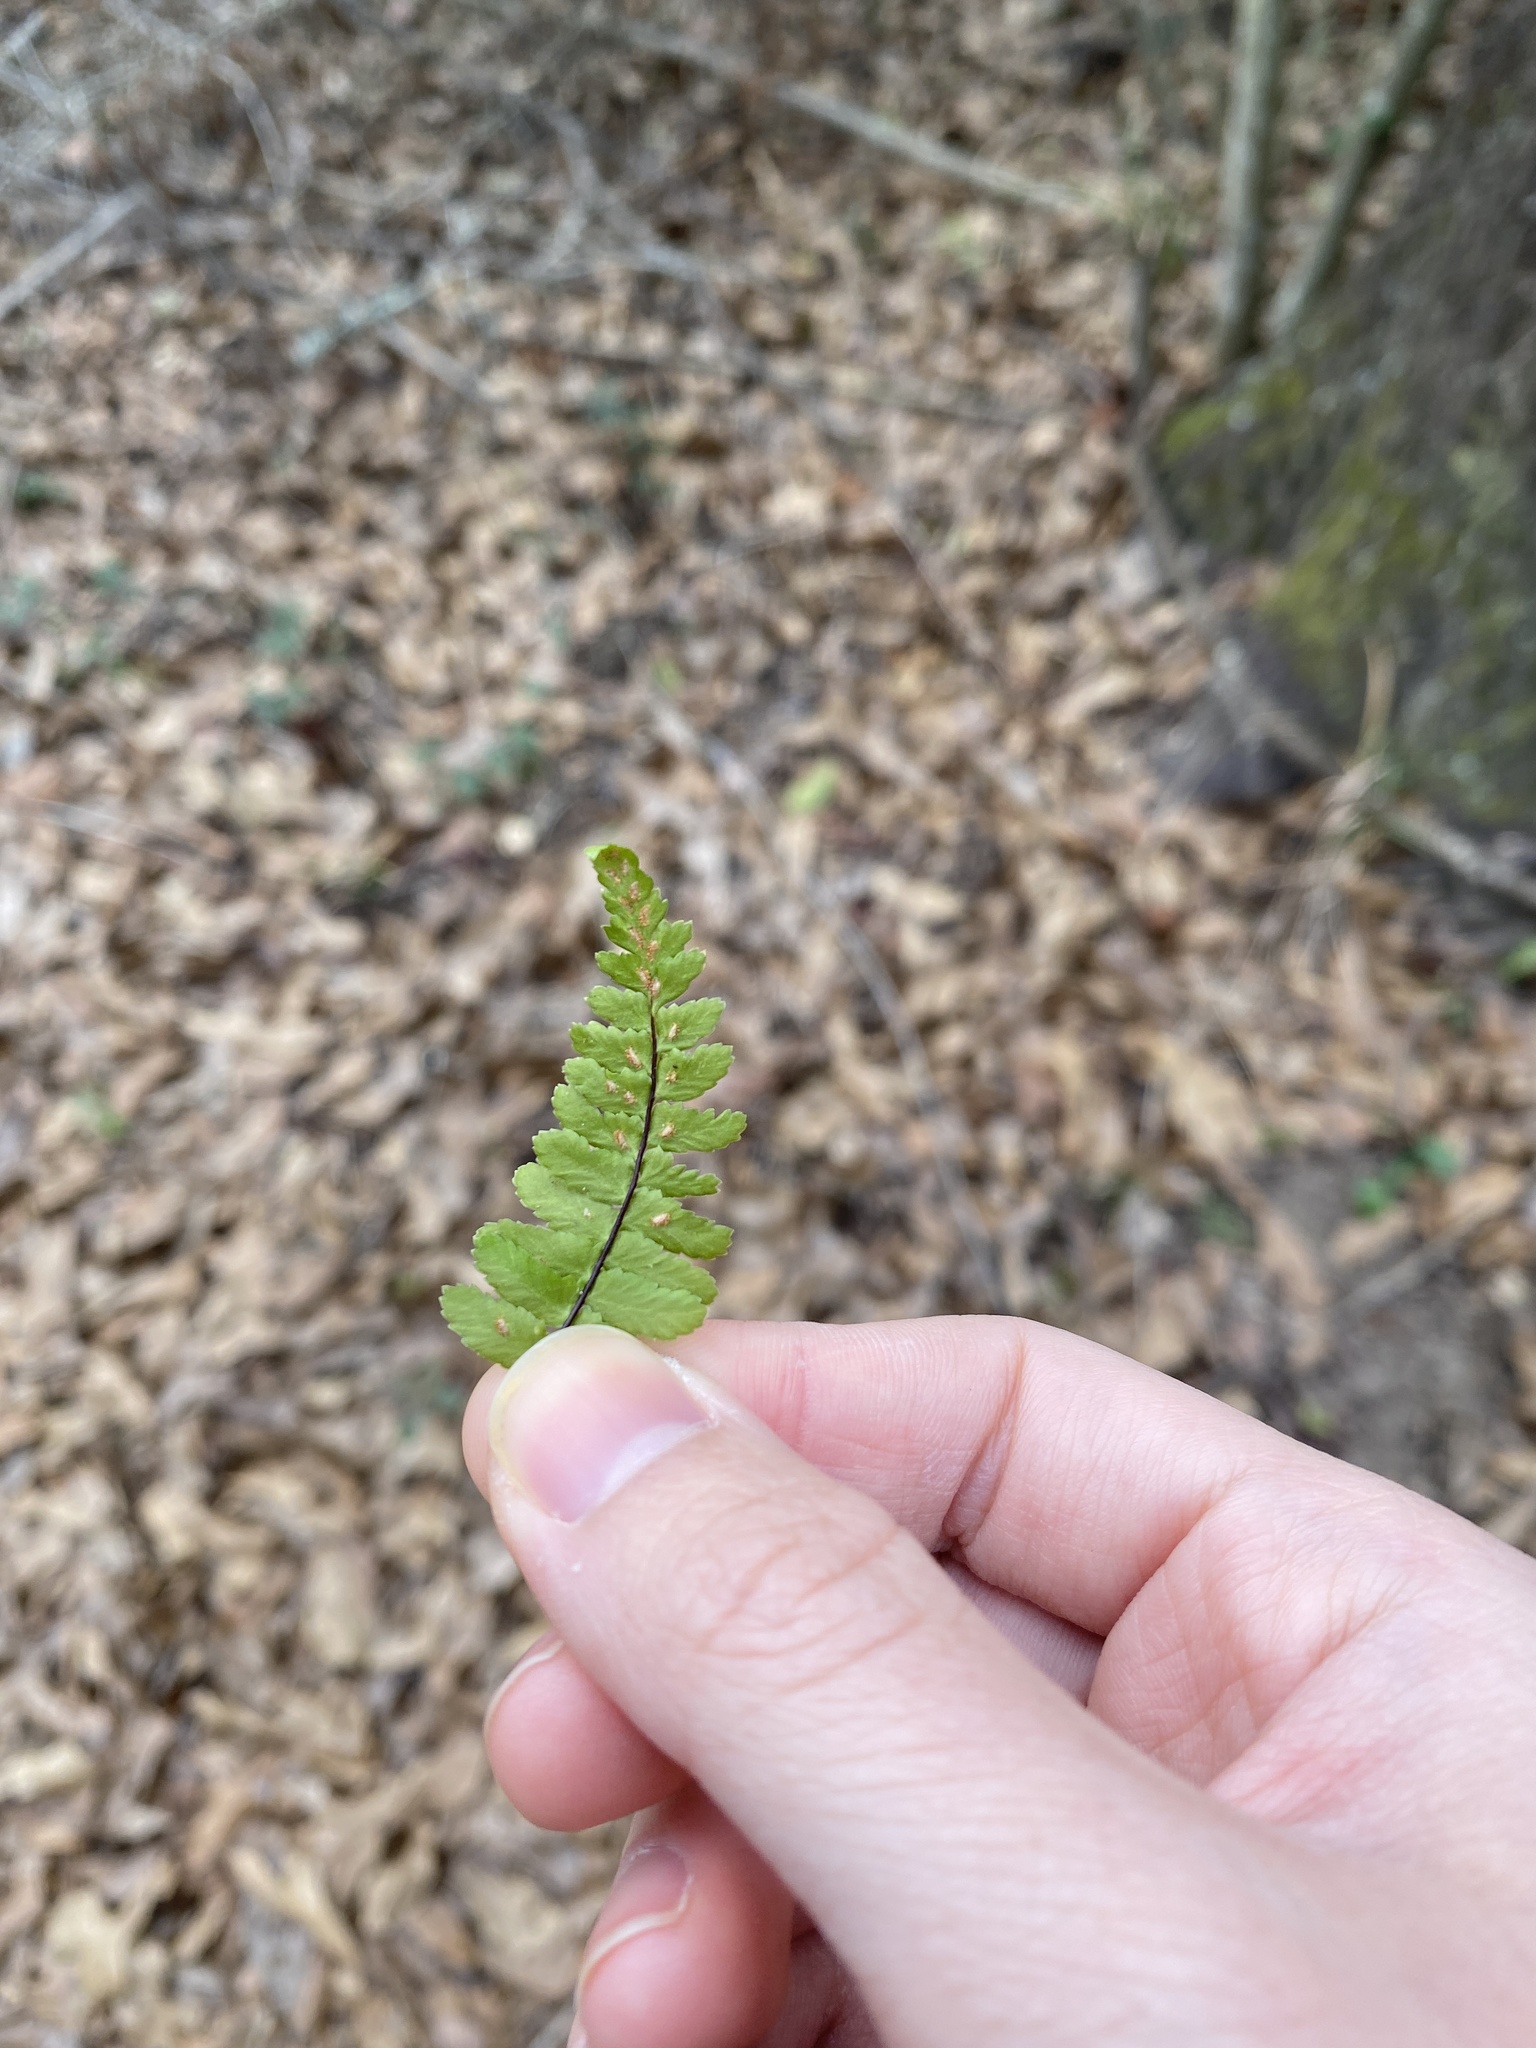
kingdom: Plantae
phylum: Tracheophyta
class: Polypodiopsida
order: Polypodiales
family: Aspleniaceae
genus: Asplenium
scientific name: Asplenium platyneuron
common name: Ebony spleenwort
